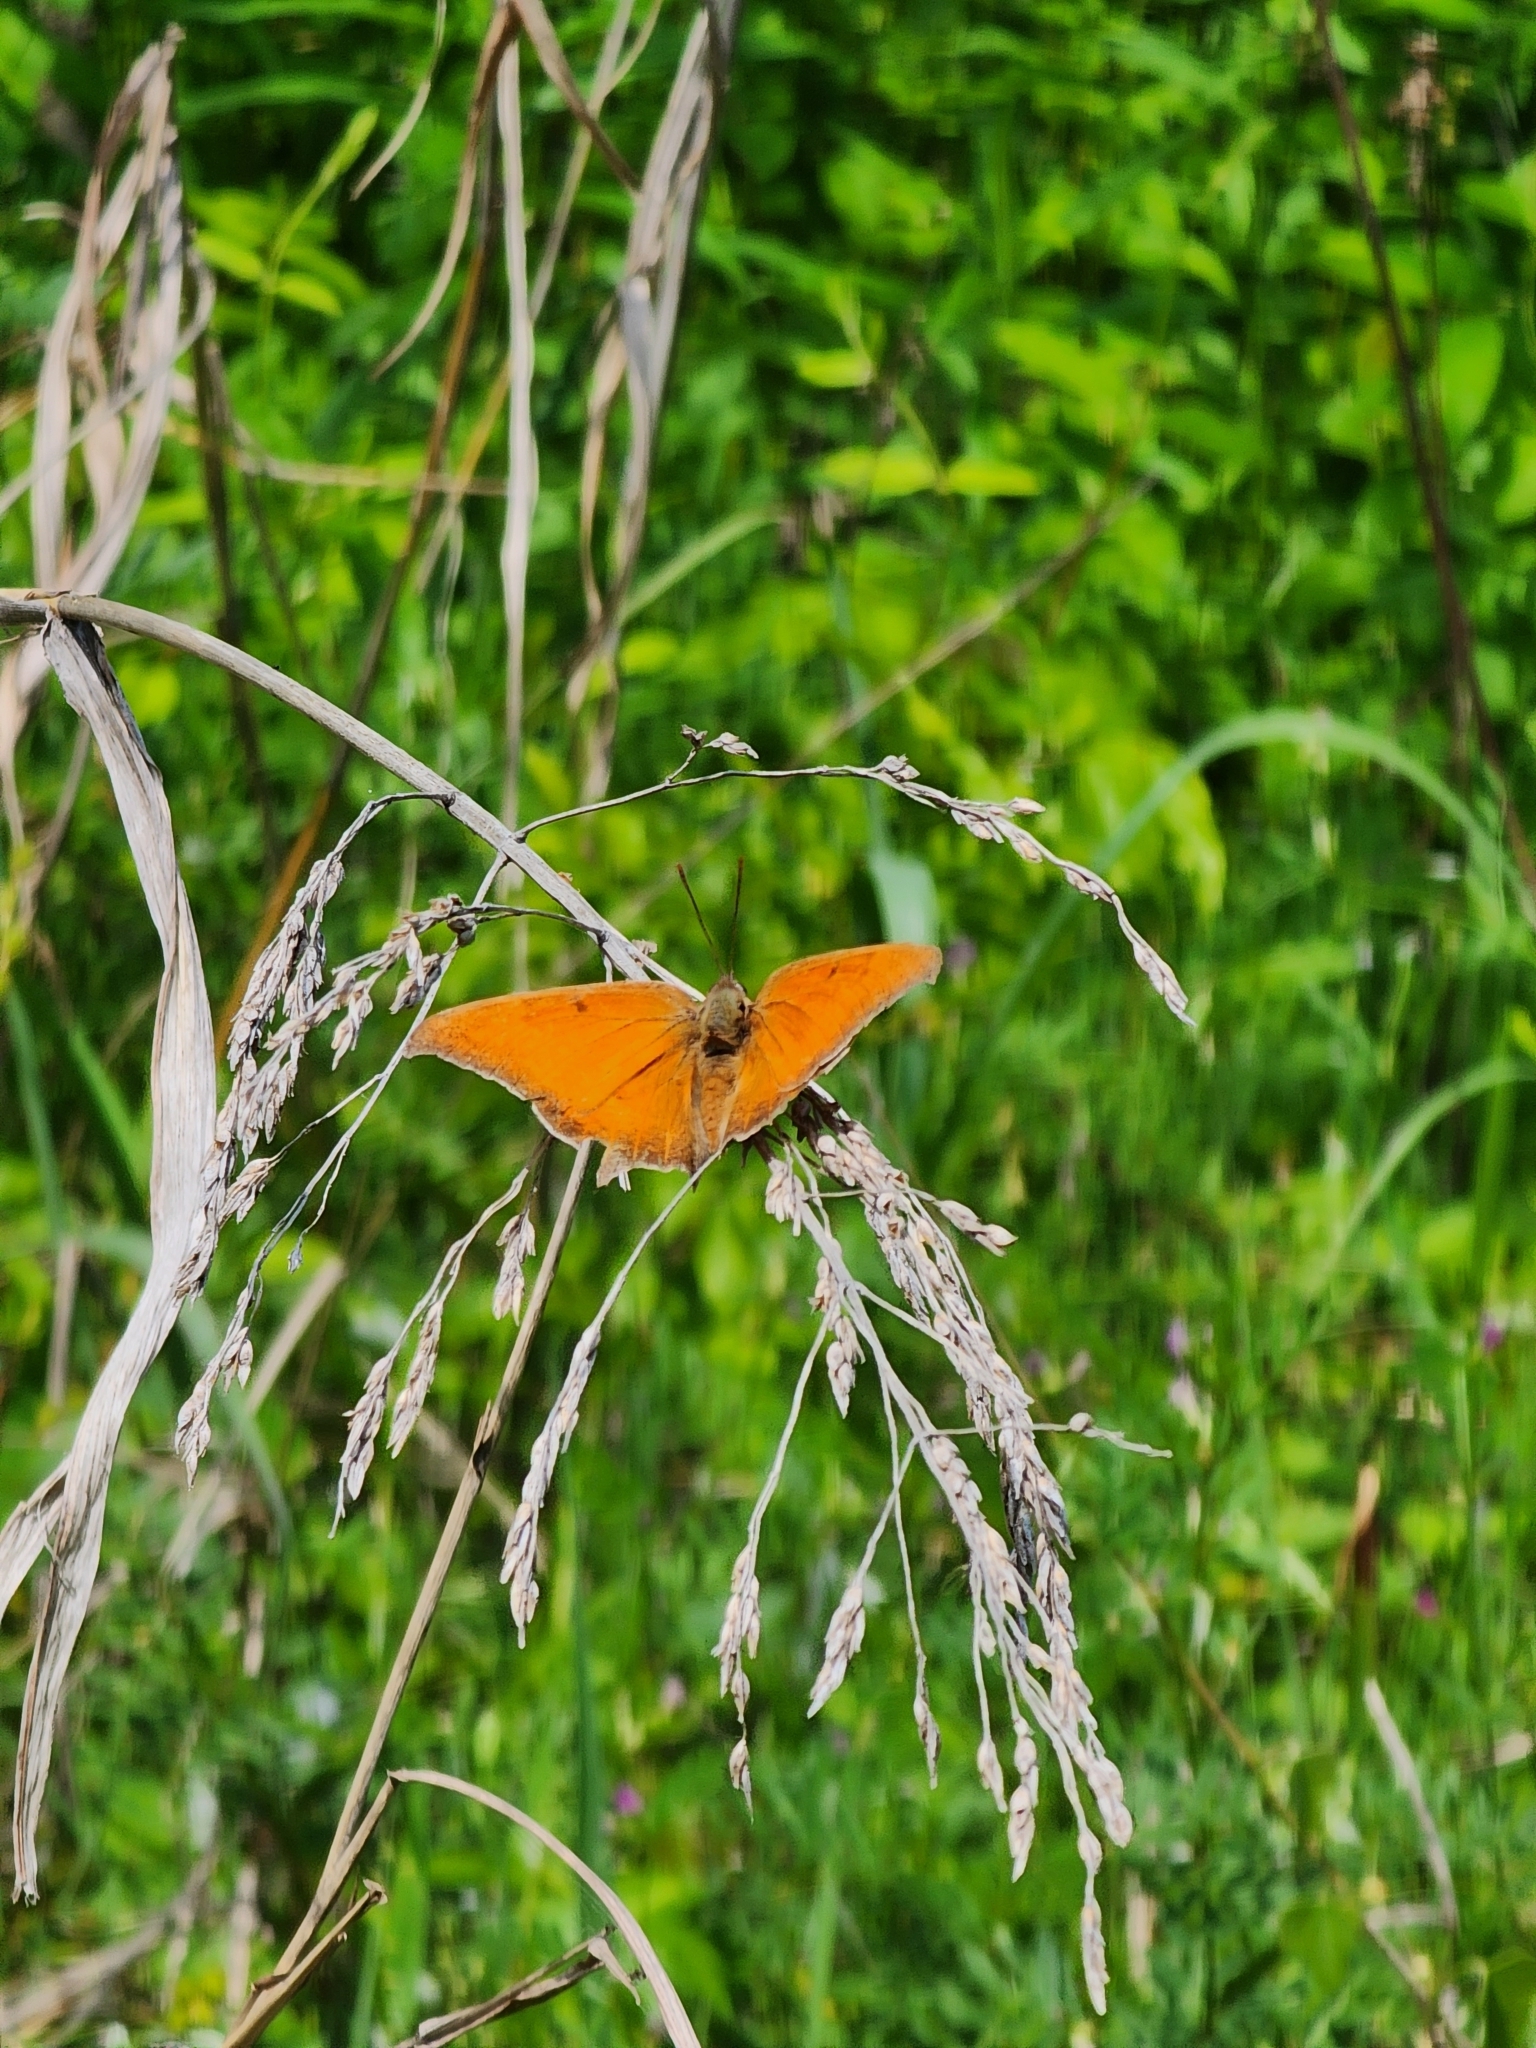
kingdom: Animalia
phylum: Arthropoda
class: Insecta
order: Lepidoptera
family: Nymphalidae
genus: Anaea
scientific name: Anaea andria
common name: Goatweed leafwing
